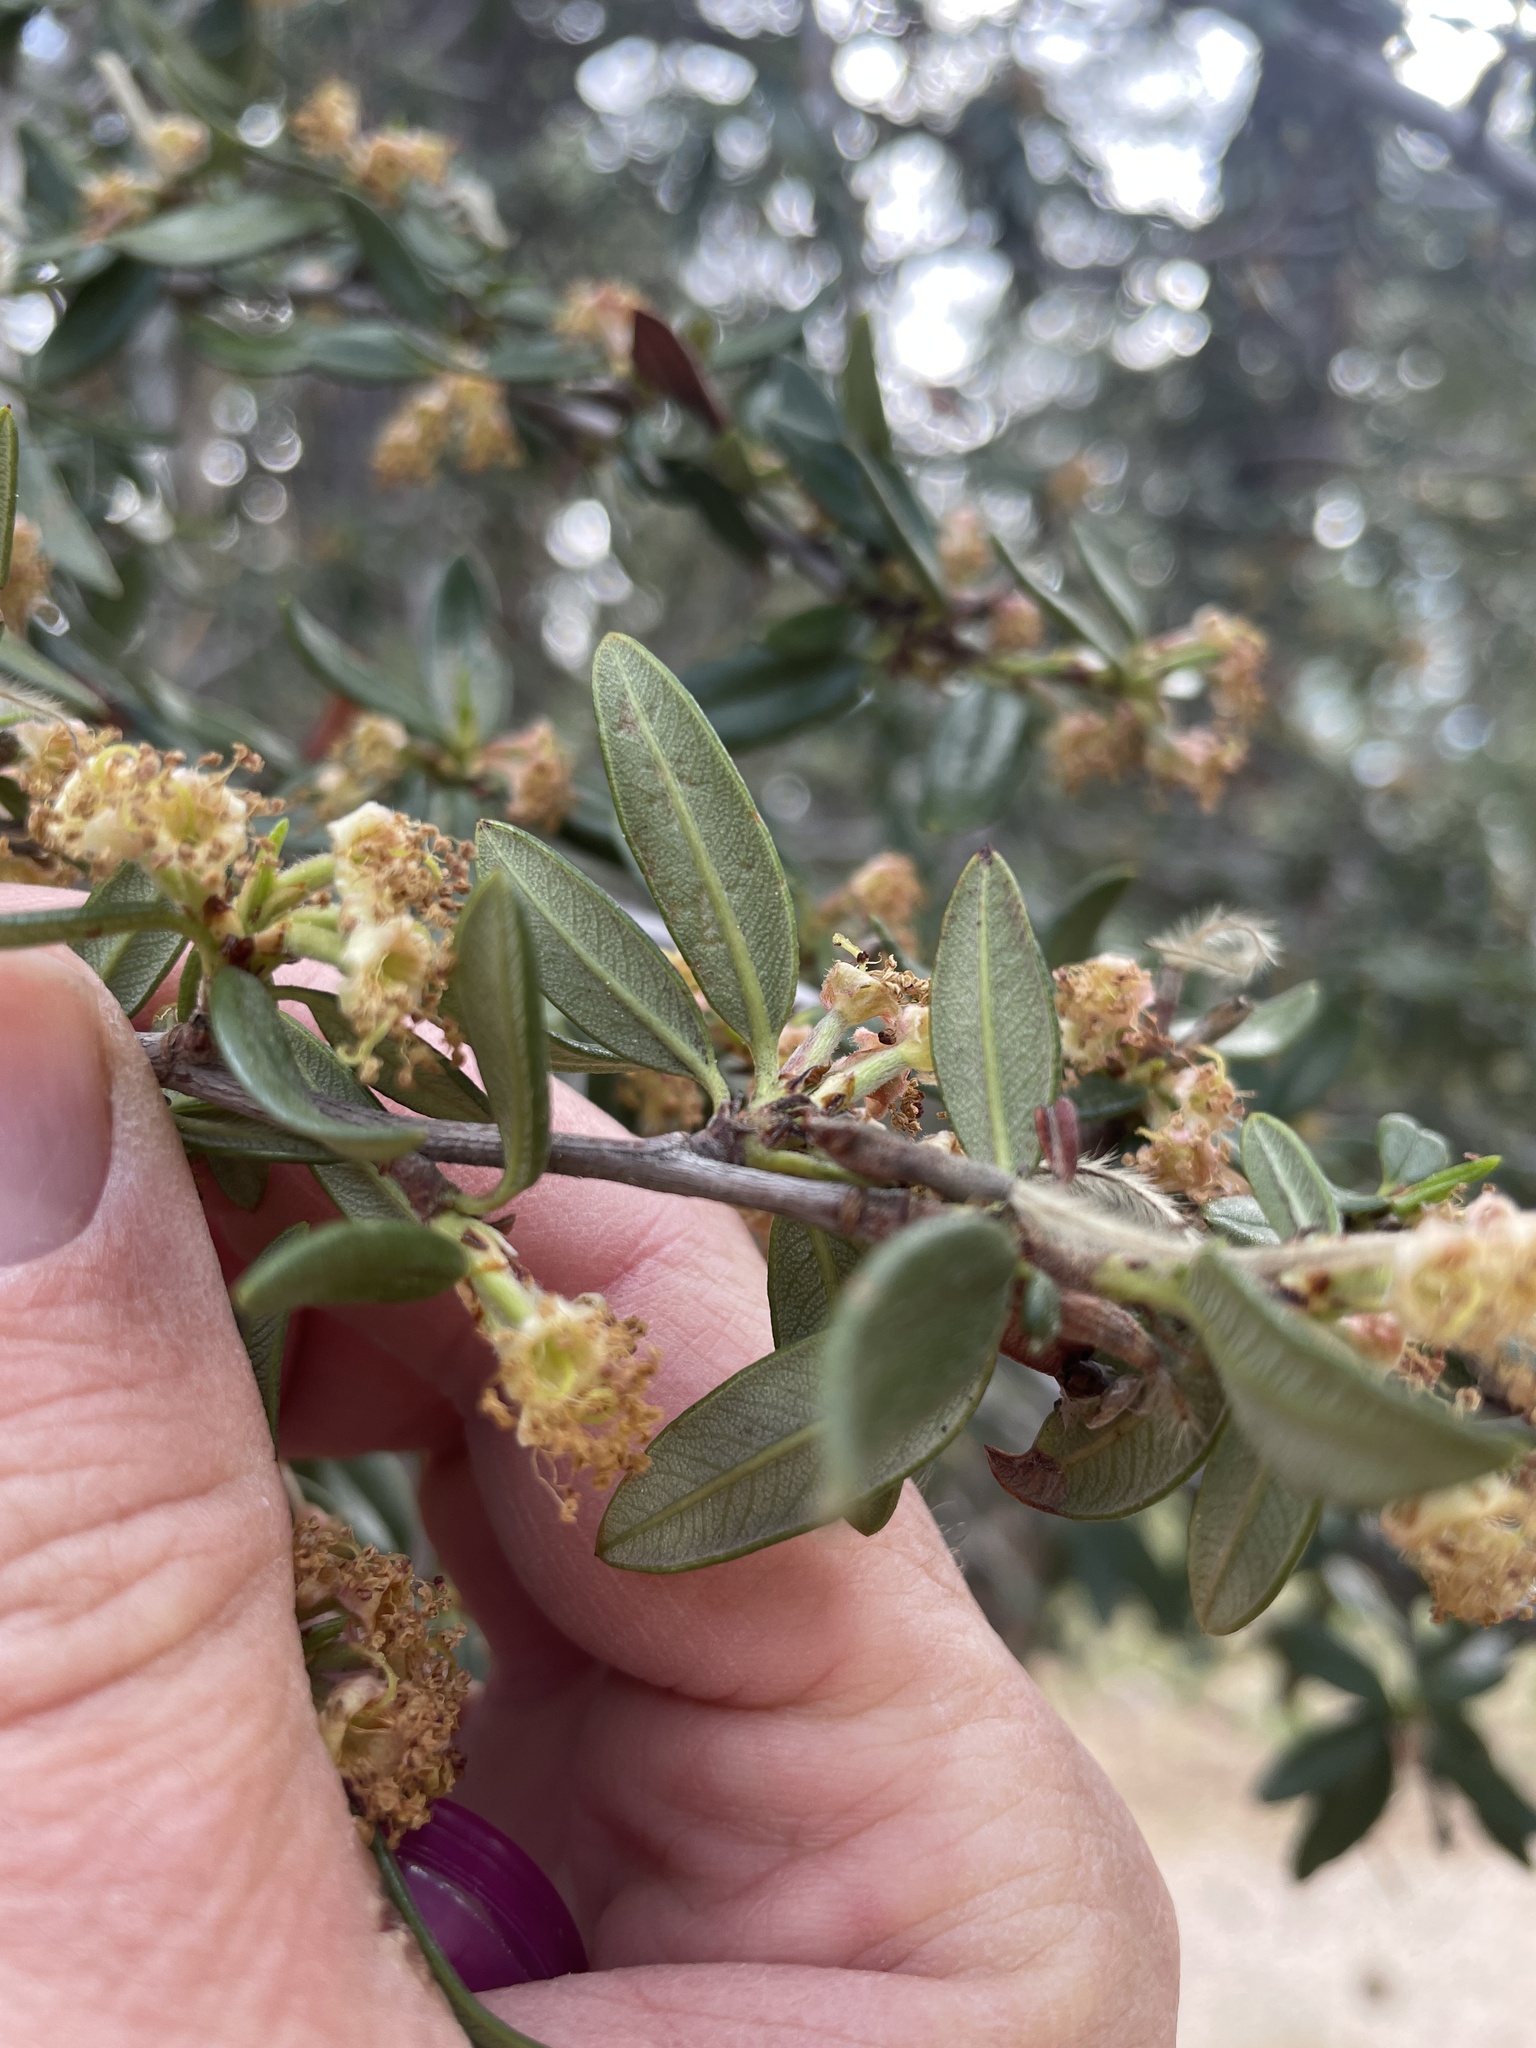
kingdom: Plantae
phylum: Tracheophyta
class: Magnoliopsida
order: Rosales
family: Rosaceae
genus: Cercocarpus
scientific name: Cercocarpus ledifolius
